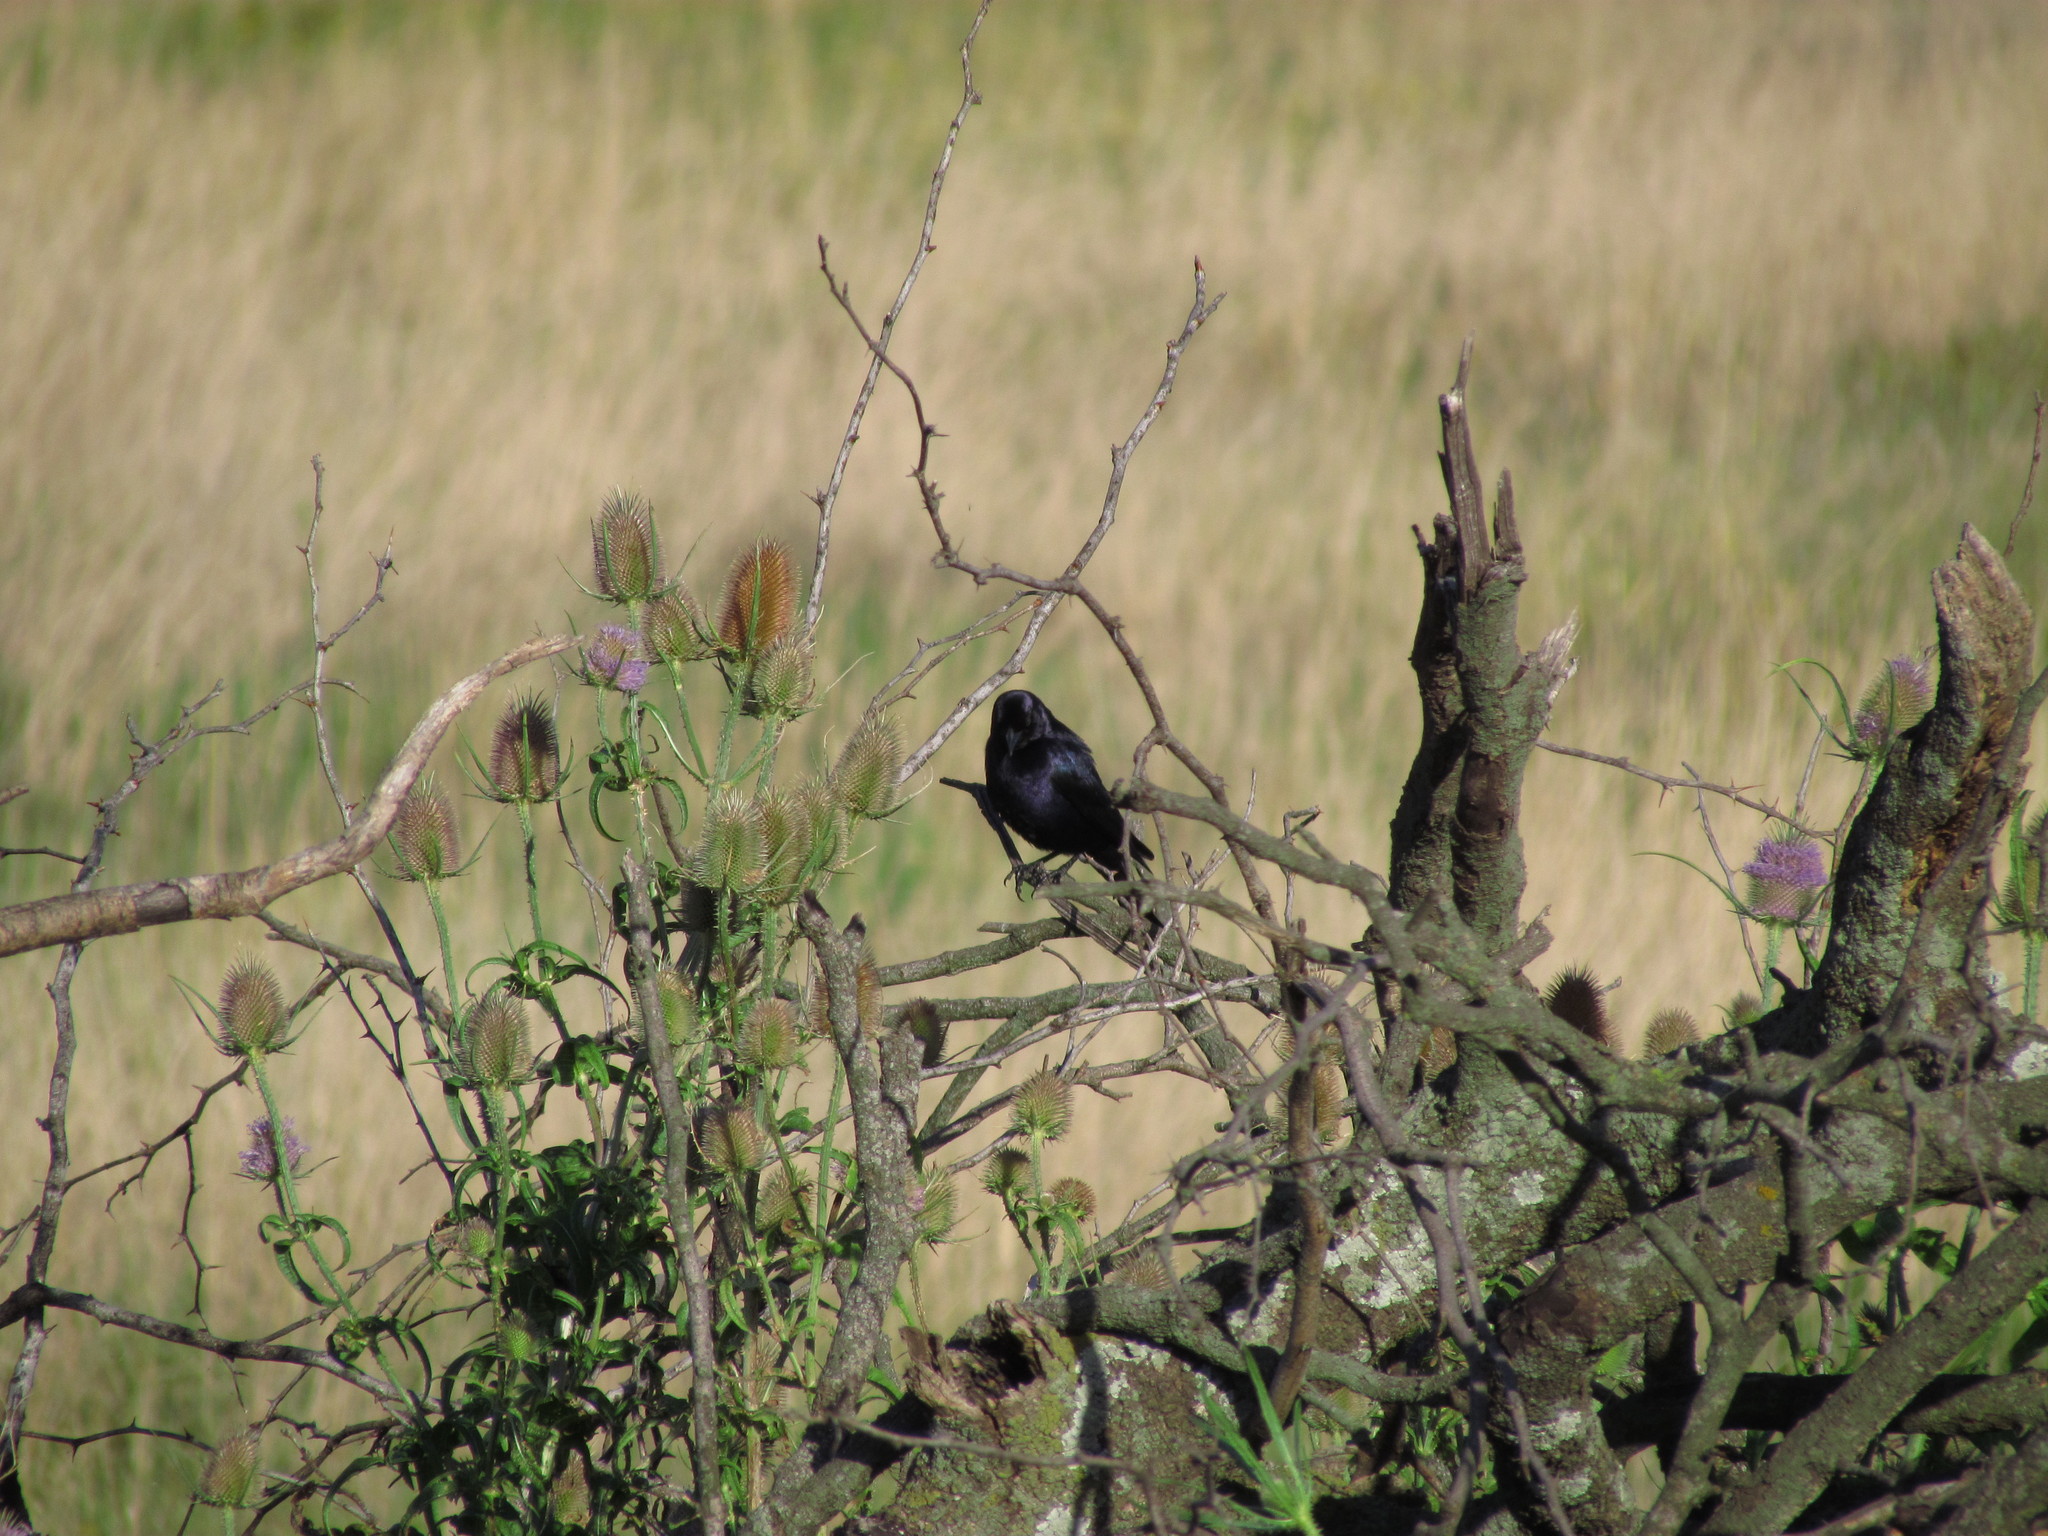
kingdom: Animalia
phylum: Chordata
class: Aves
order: Passeriformes
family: Icteridae
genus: Molothrus
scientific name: Molothrus bonariensis
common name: Shiny cowbird
